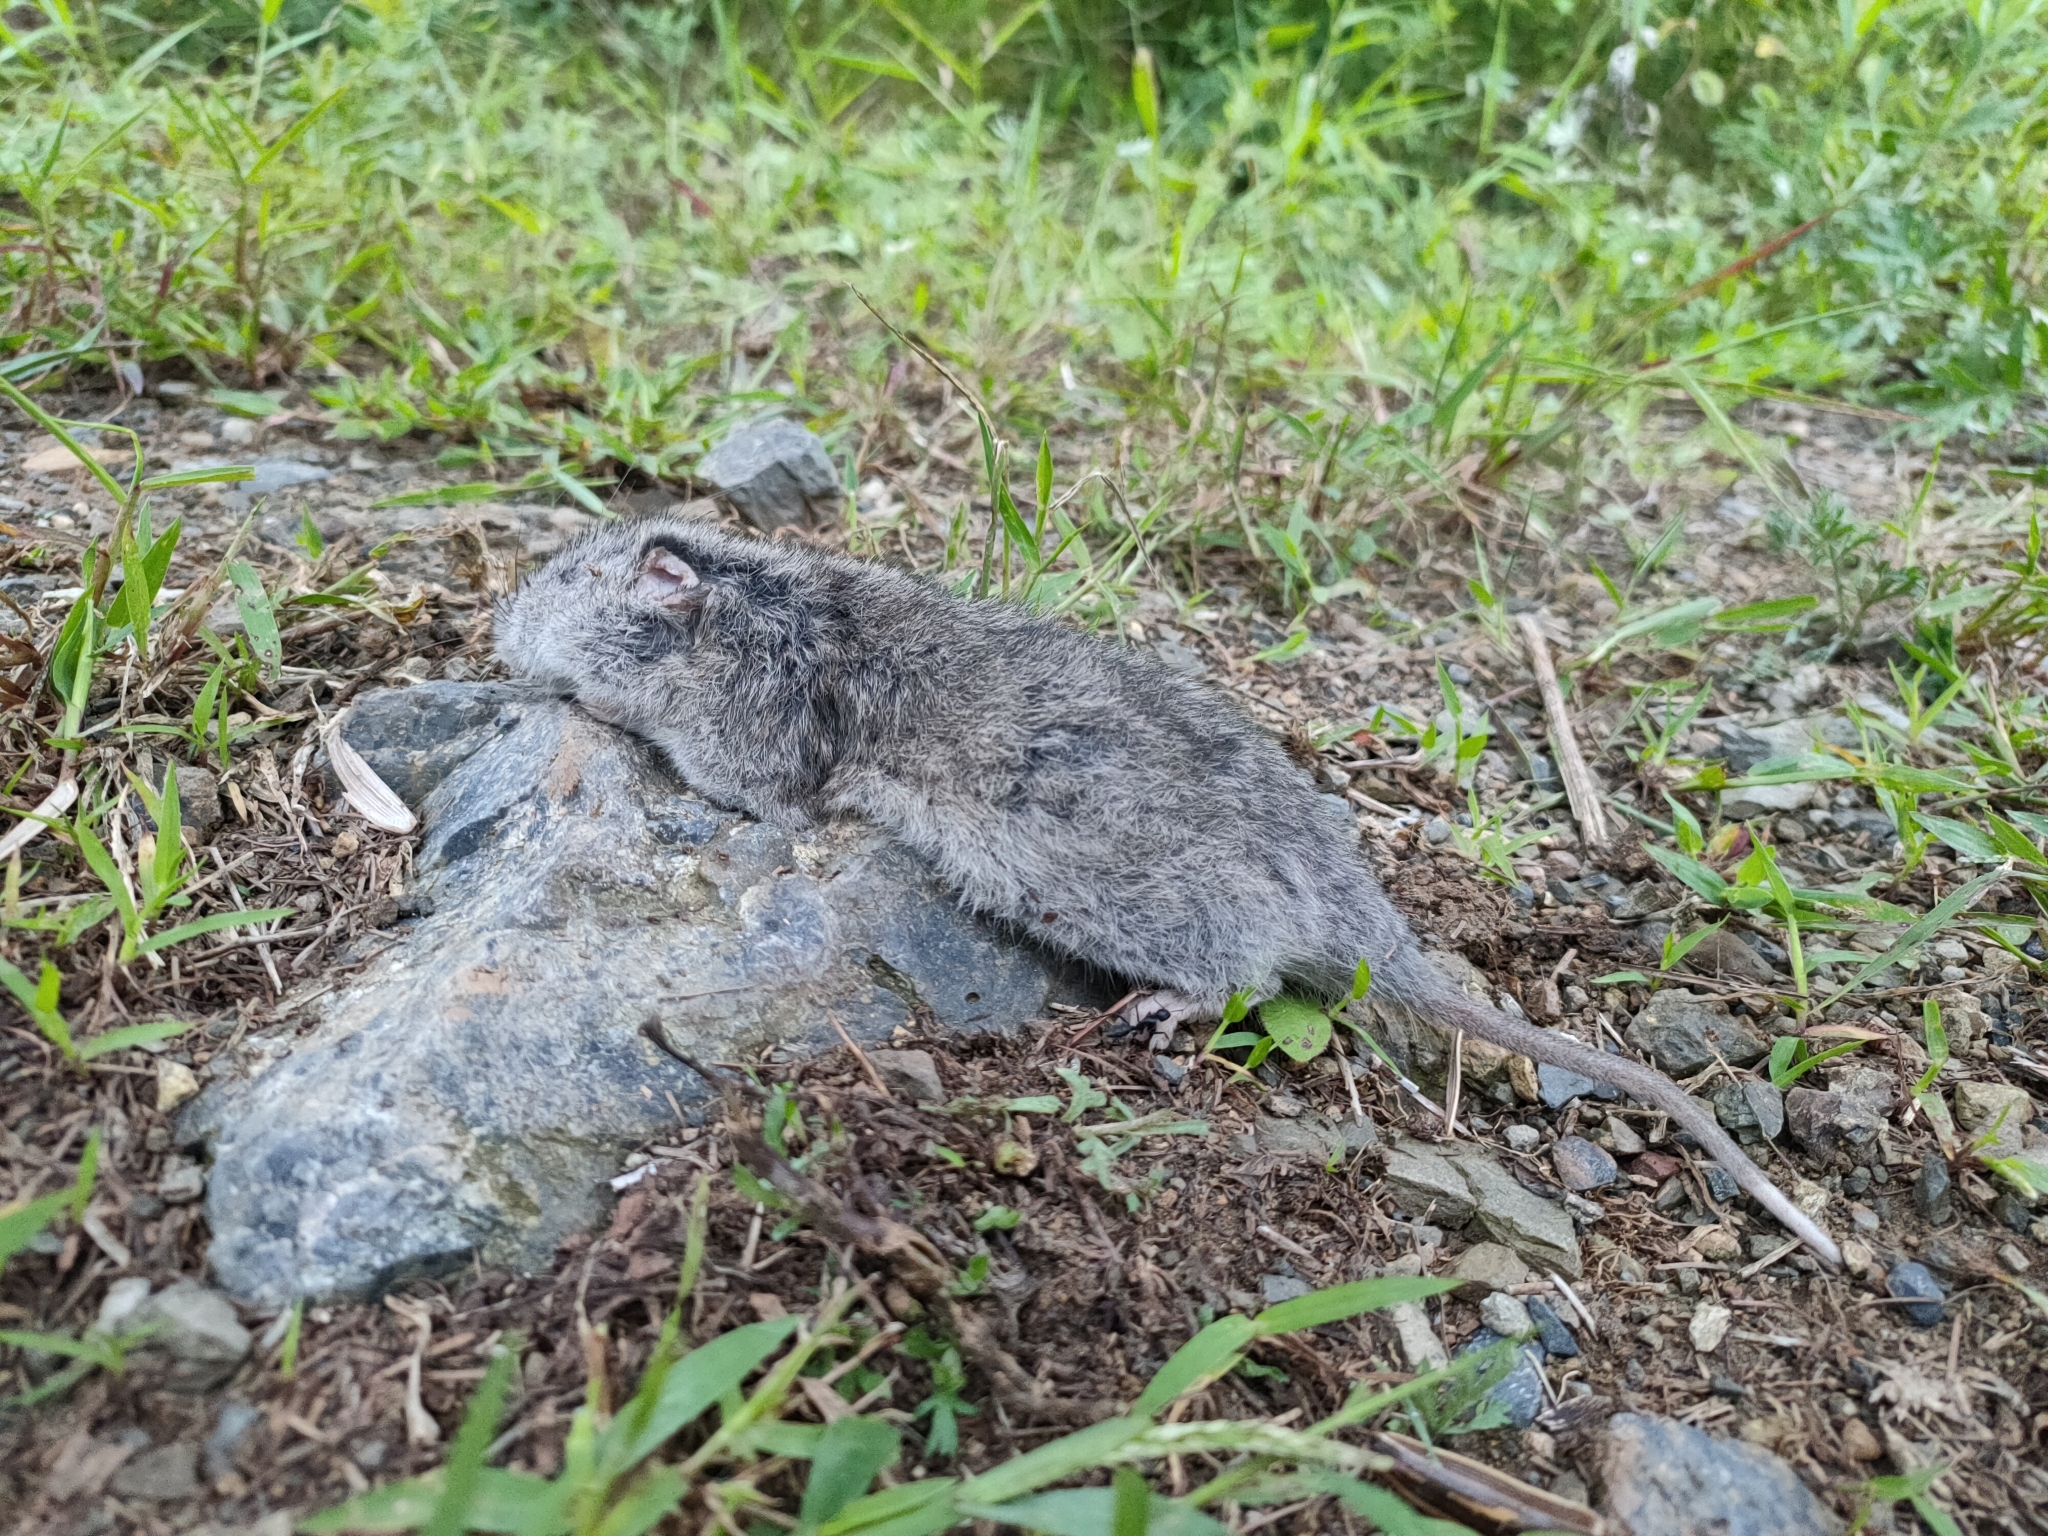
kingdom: Animalia
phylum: Chordata
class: Mammalia
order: Rodentia
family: Cricetidae
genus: Tscherskia
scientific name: Tscherskia triton
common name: Greater long-tailed hamster
